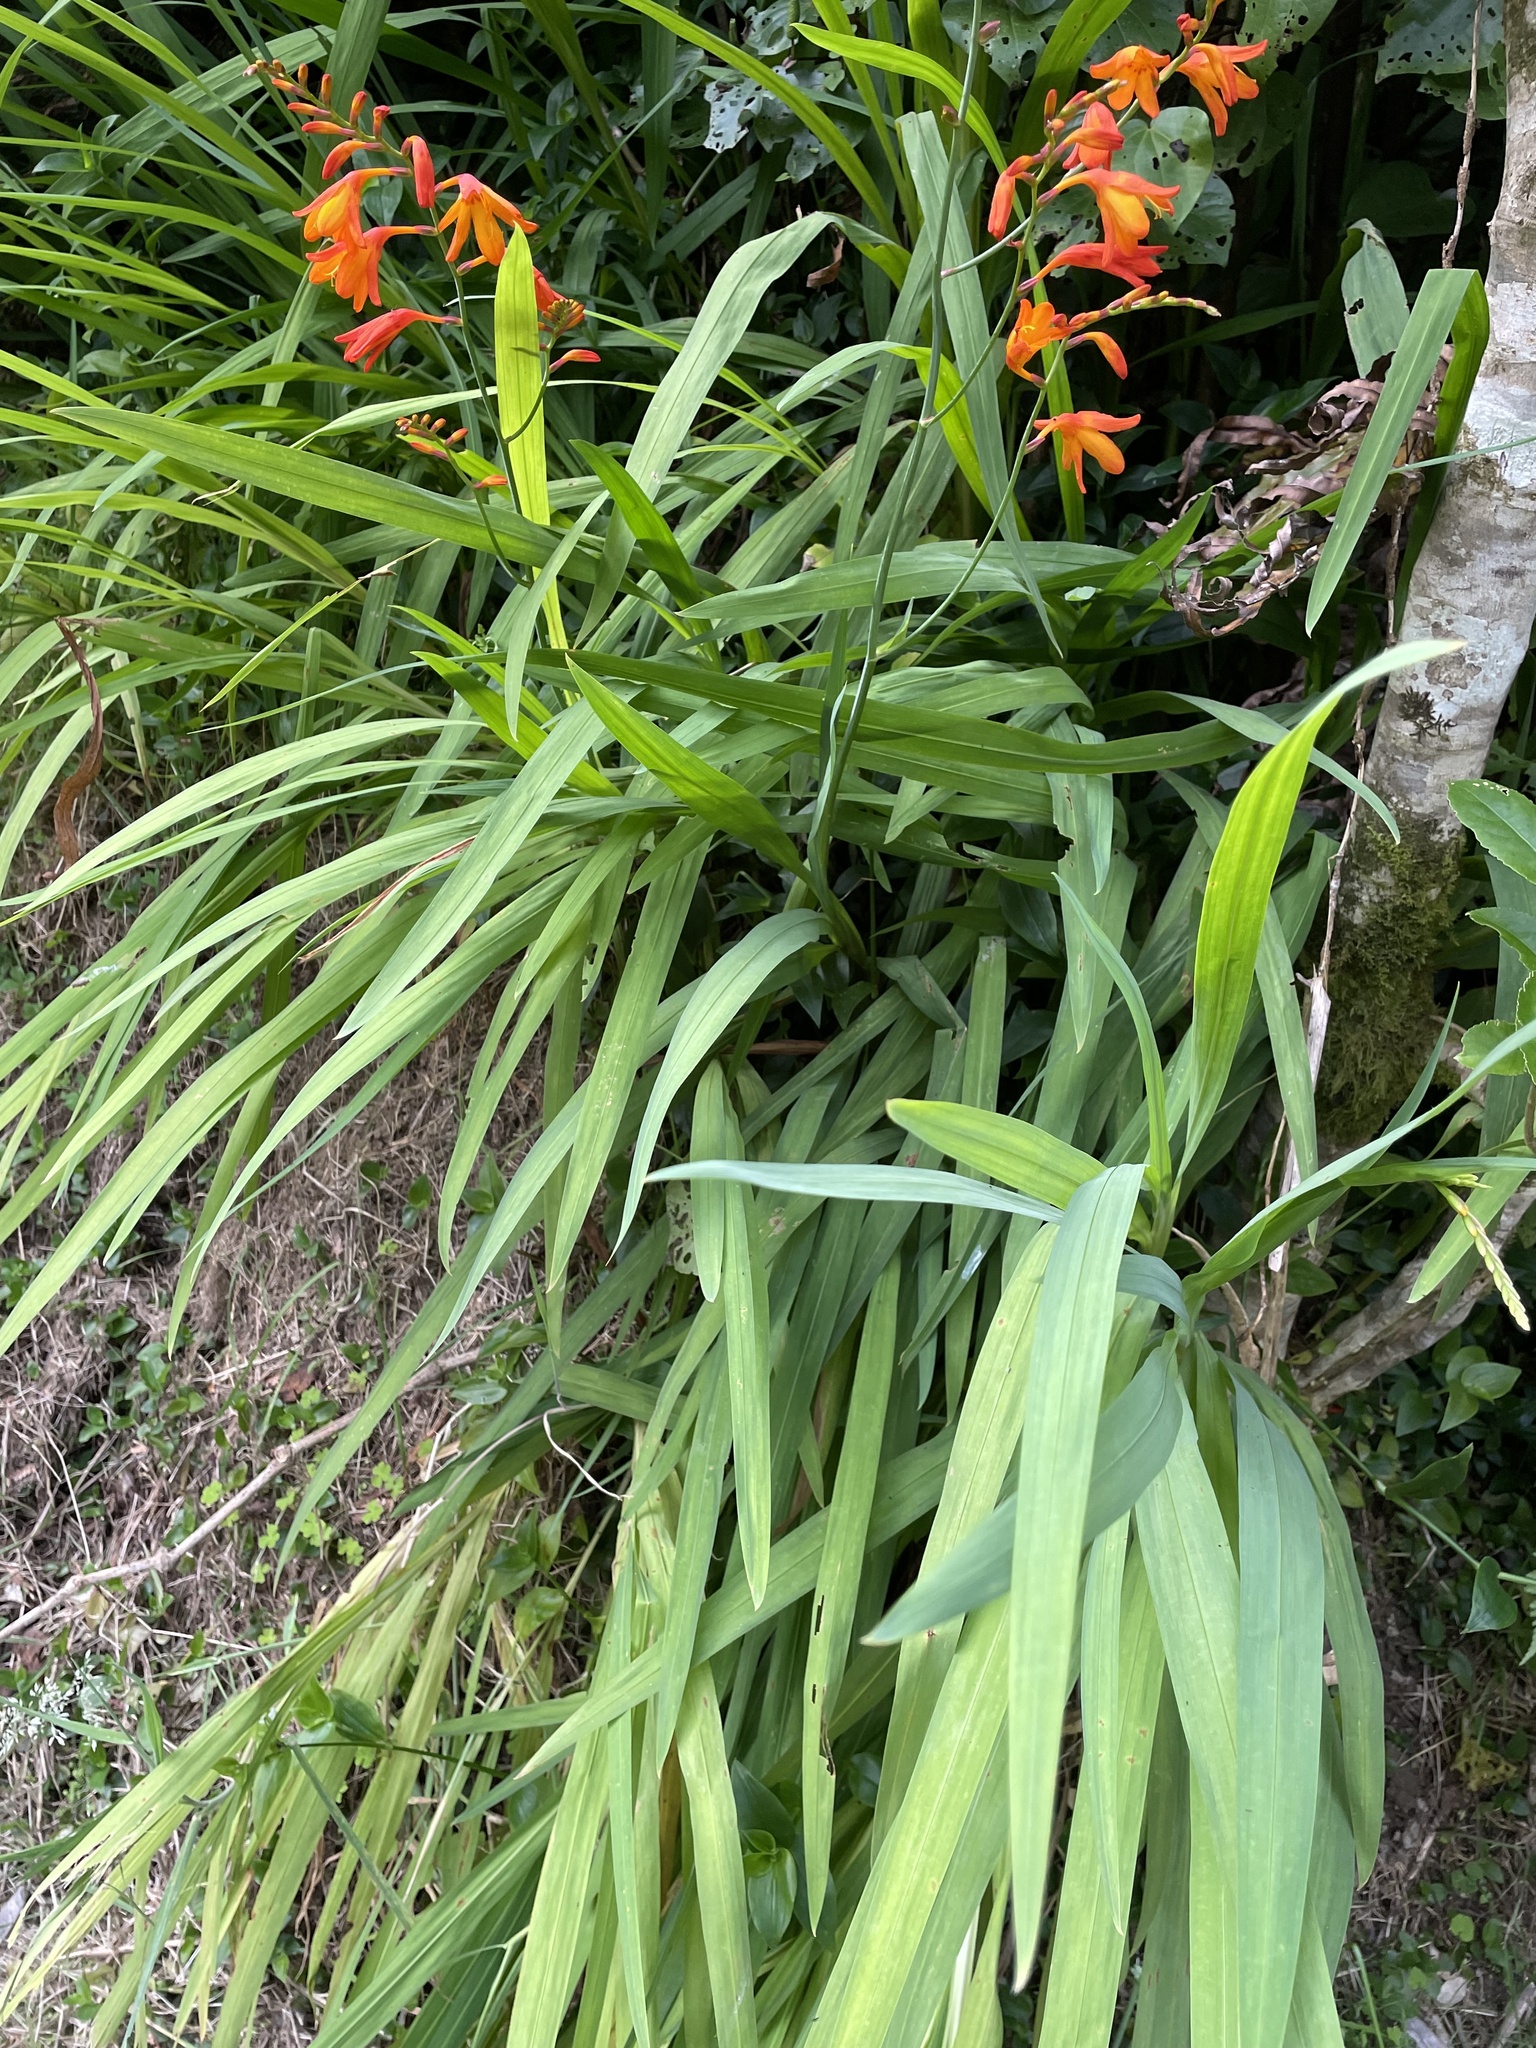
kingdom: Plantae
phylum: Tracheophyta
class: Liliopsida
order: Asparagales
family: Iridaceae
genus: Crocosmia
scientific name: Crocosmia crocosmiiflora
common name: Montbretia
